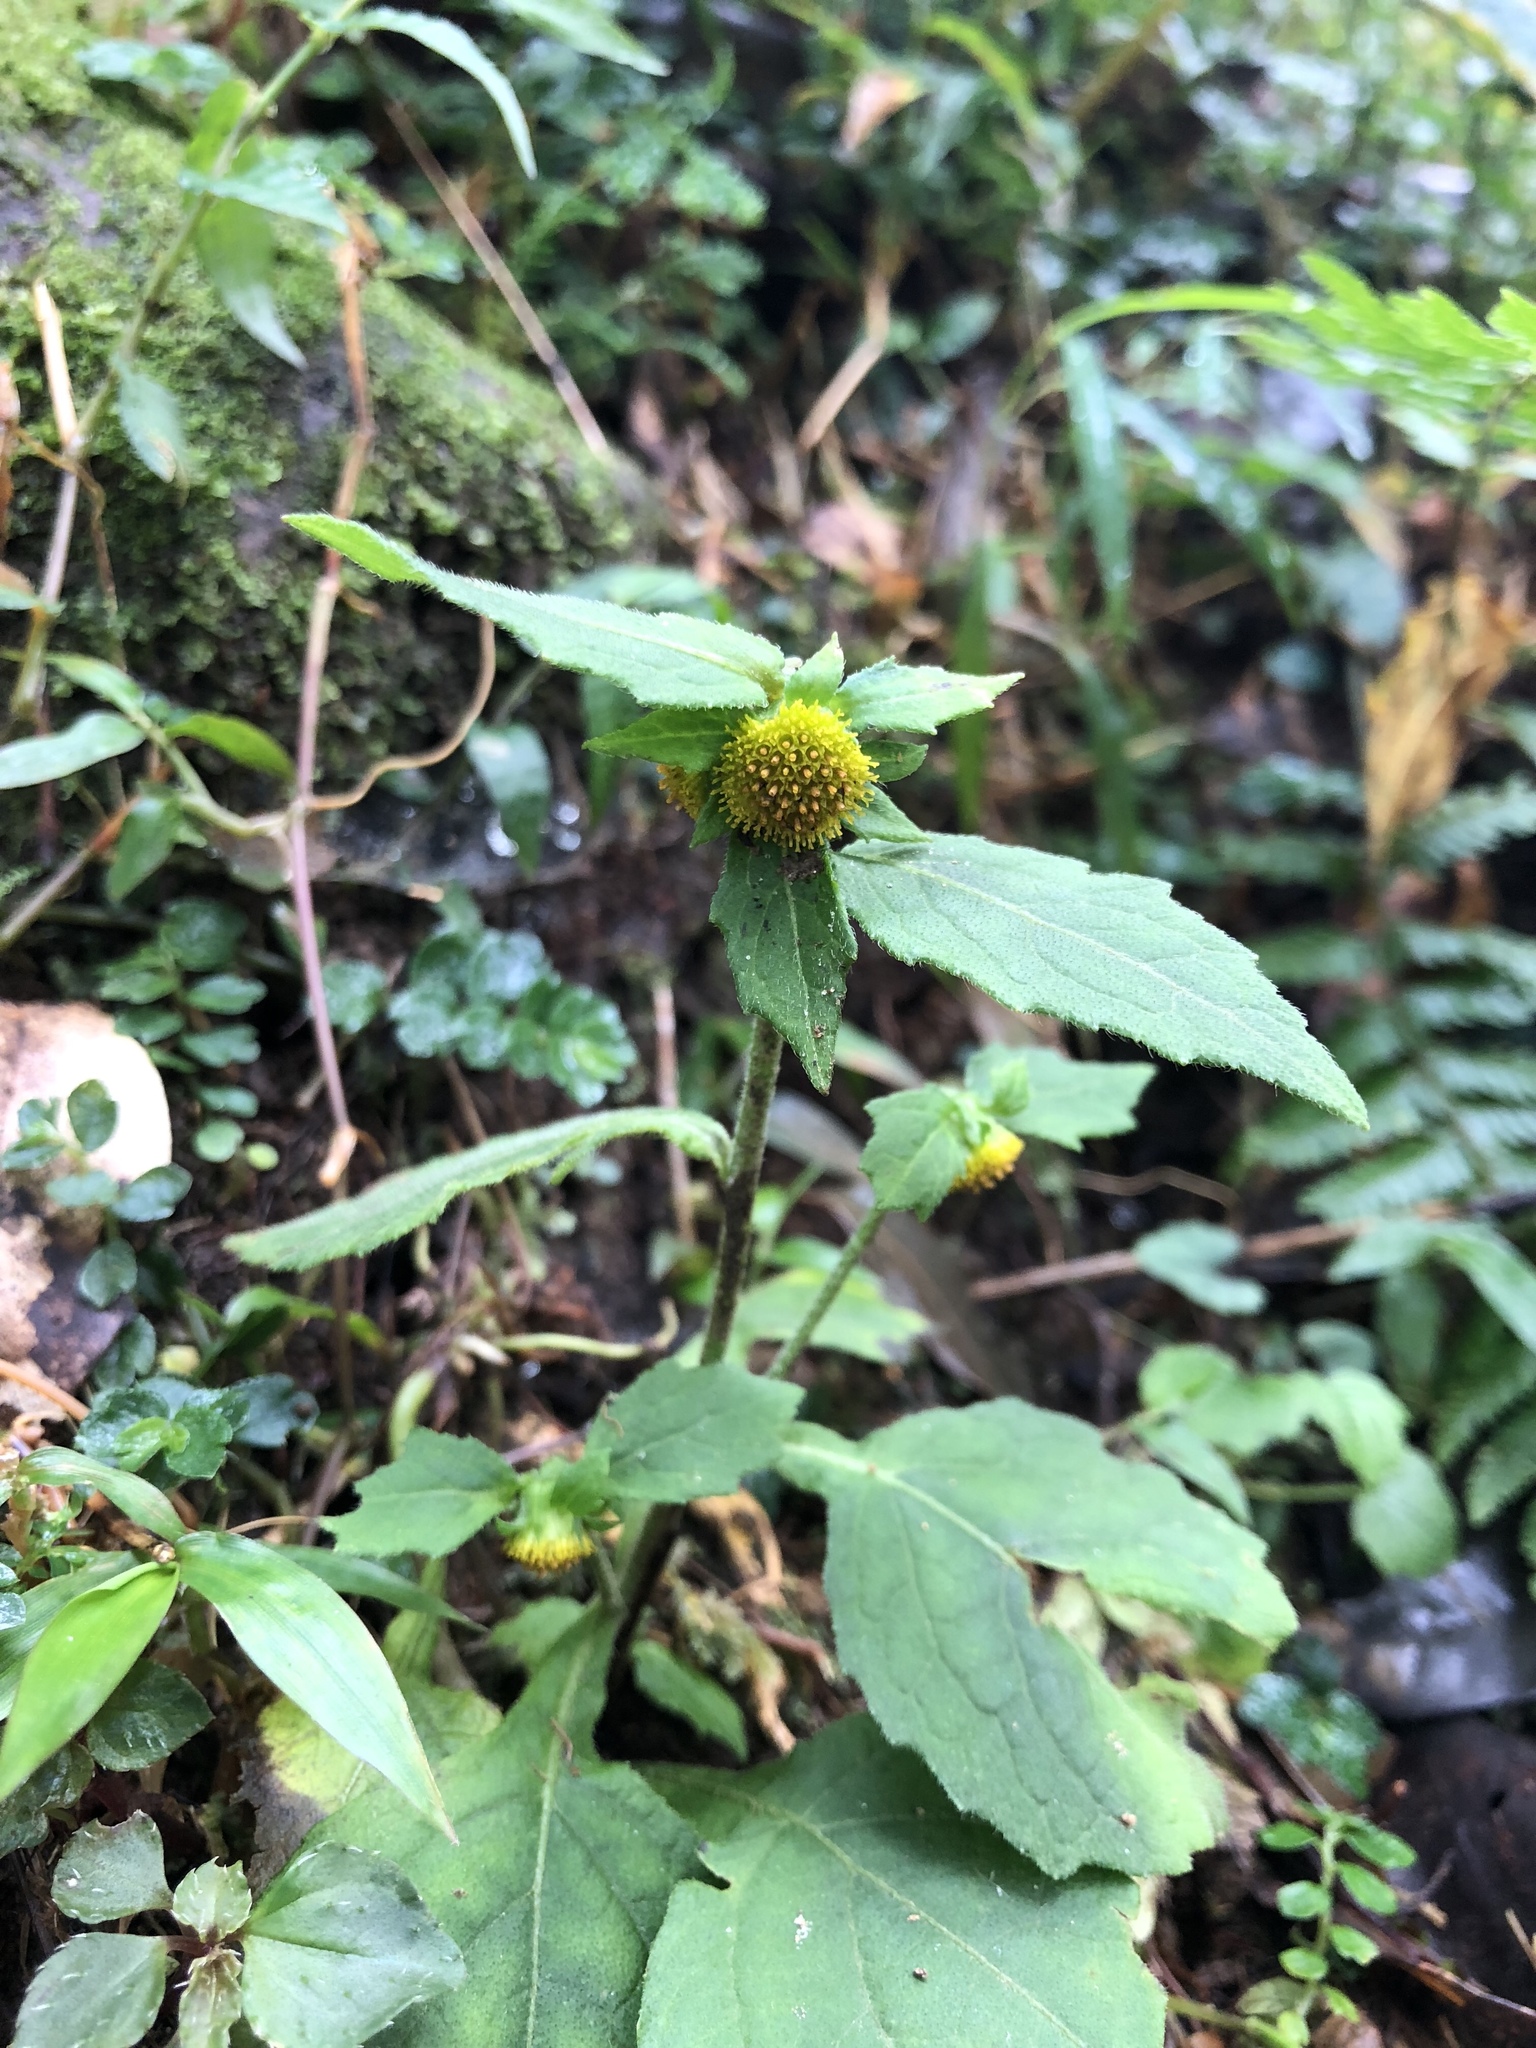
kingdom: Plantae
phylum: Tracheophyta
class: Magnoliopsida
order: Asterales
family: Asteraceae
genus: Carpesium
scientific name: Carpesium nepalense
